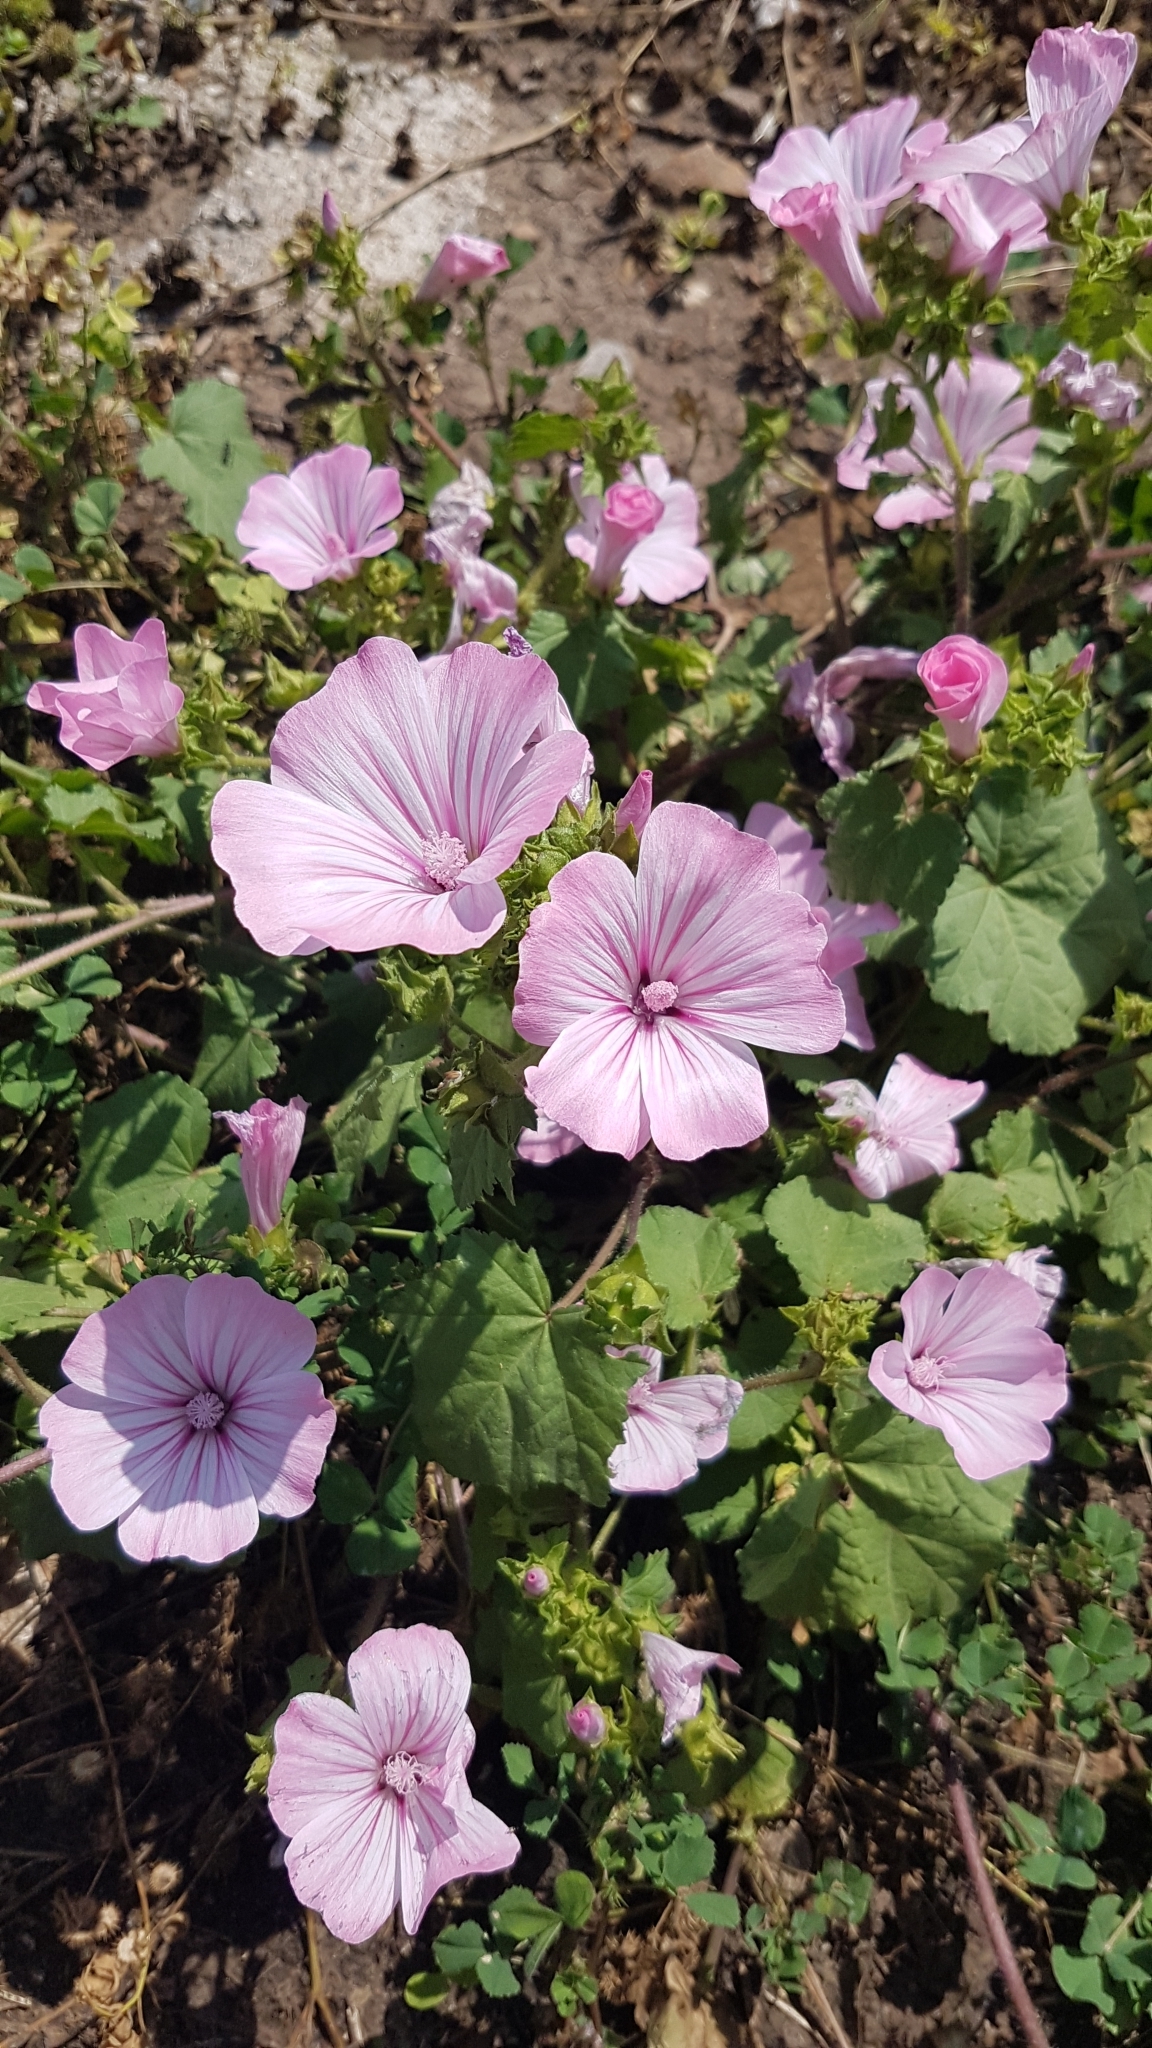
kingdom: Plantae
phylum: Tracheophyta
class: Magnoliopsida
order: Malvales
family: Malvaceae
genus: Malva
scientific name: Malva trimestris
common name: Royal mallow
